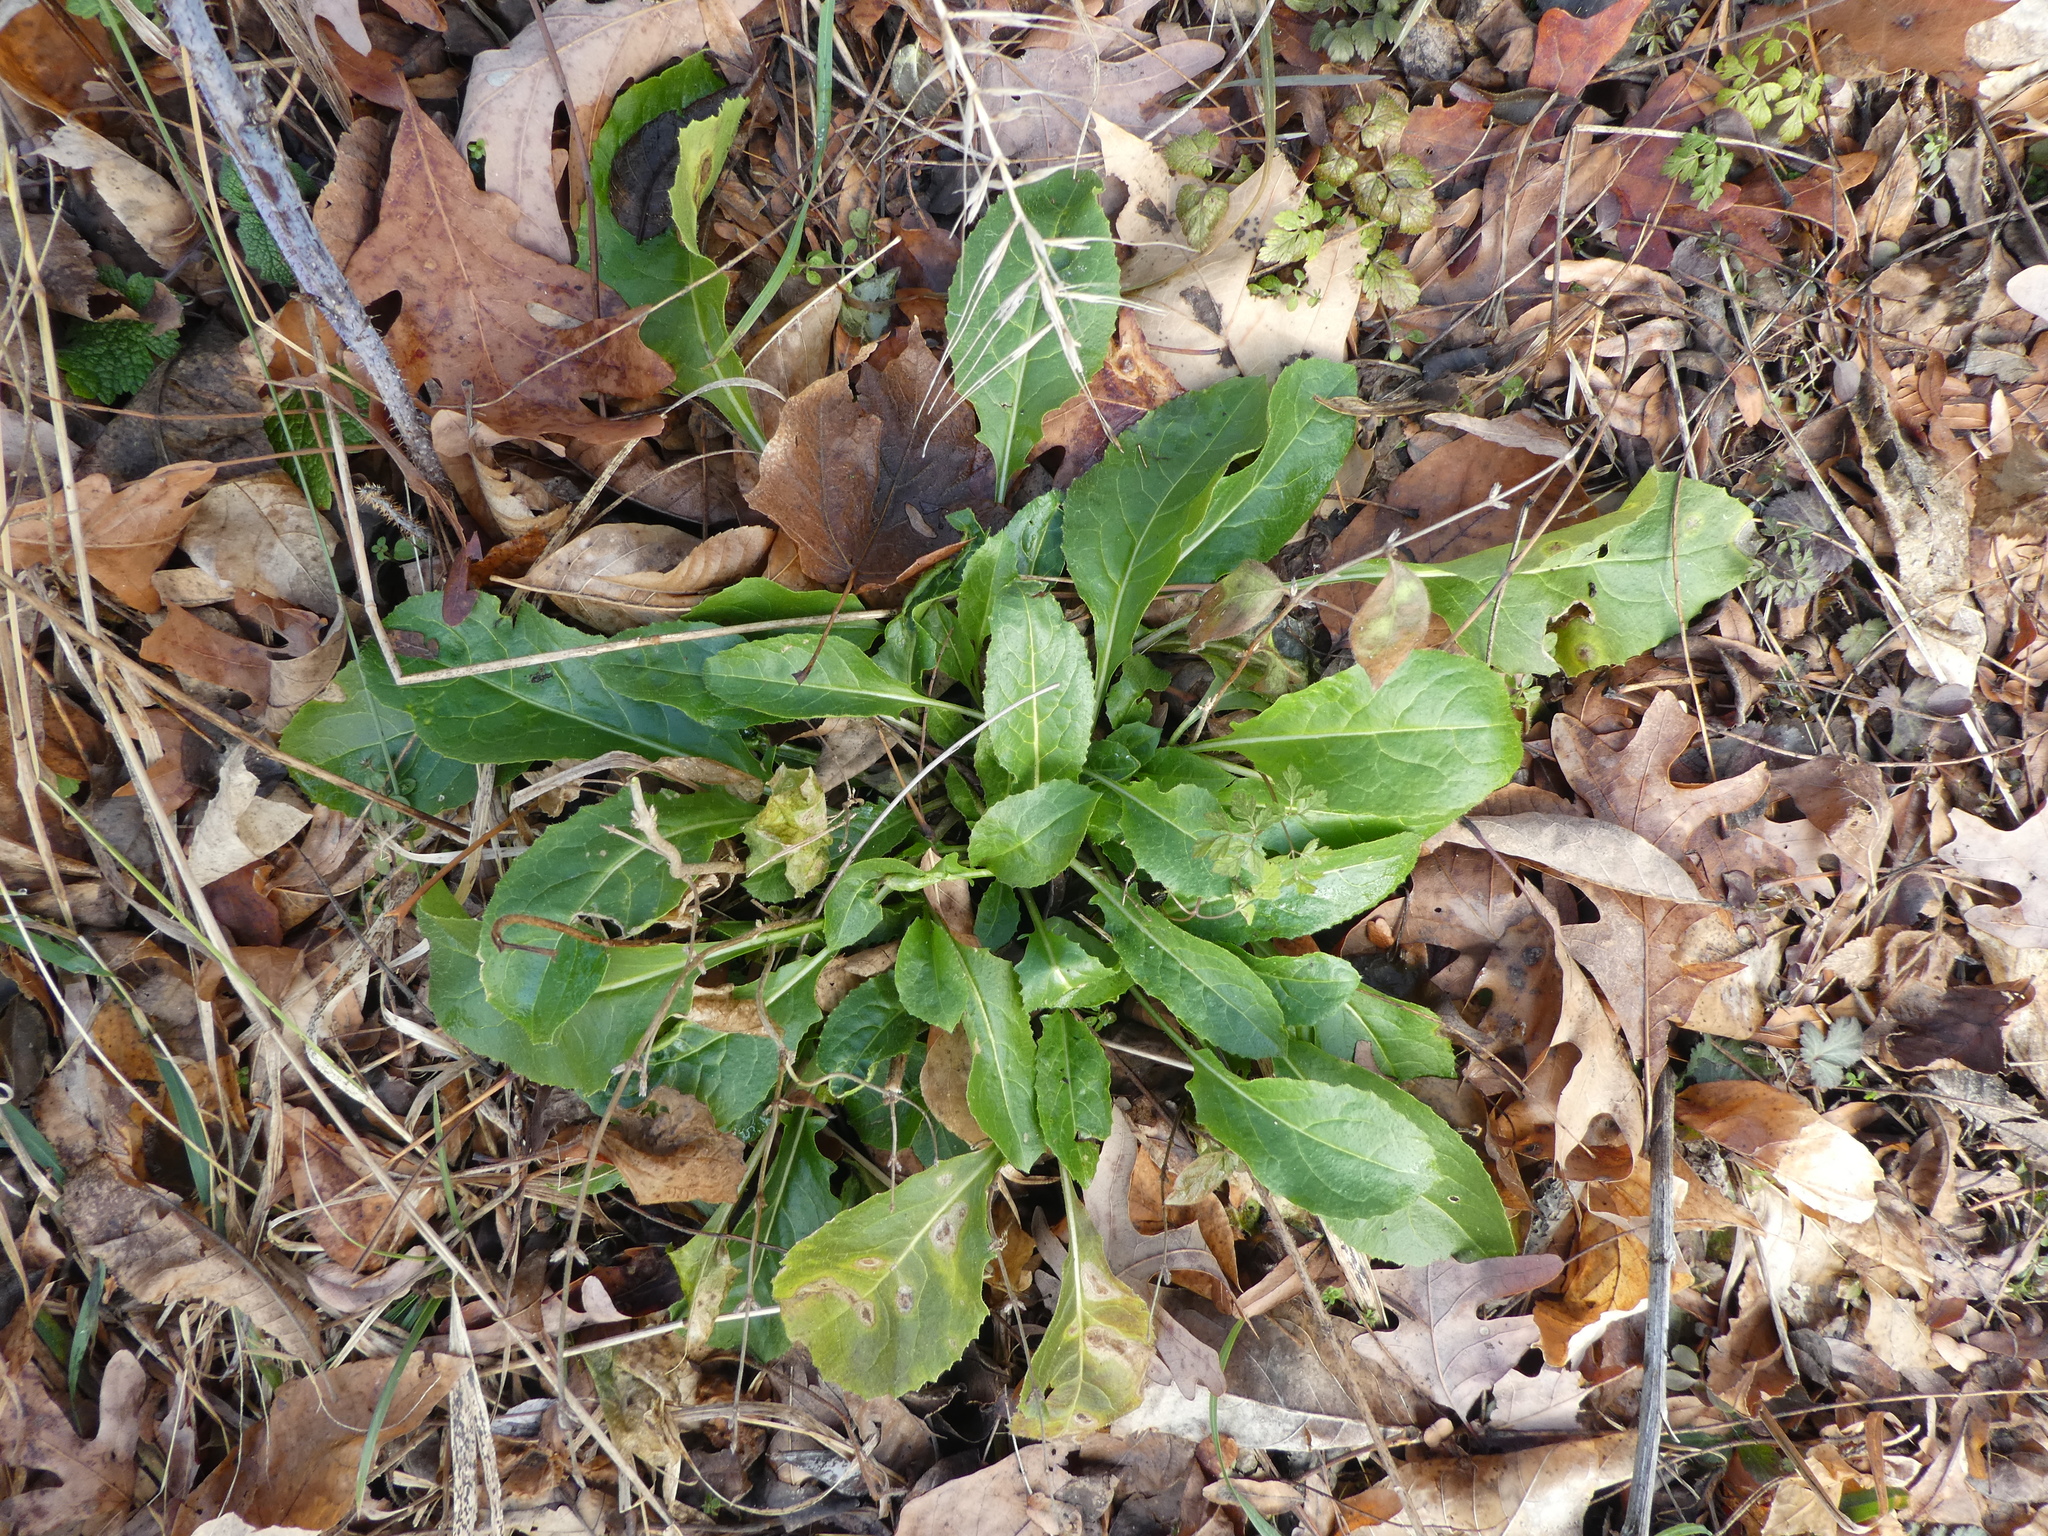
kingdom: Plantae
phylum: Tracheophyta
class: Magnoliopsida
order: Brassicales
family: Brassicaceae
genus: Hesperis
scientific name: Hesperis matronalis
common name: Dame's-violet
